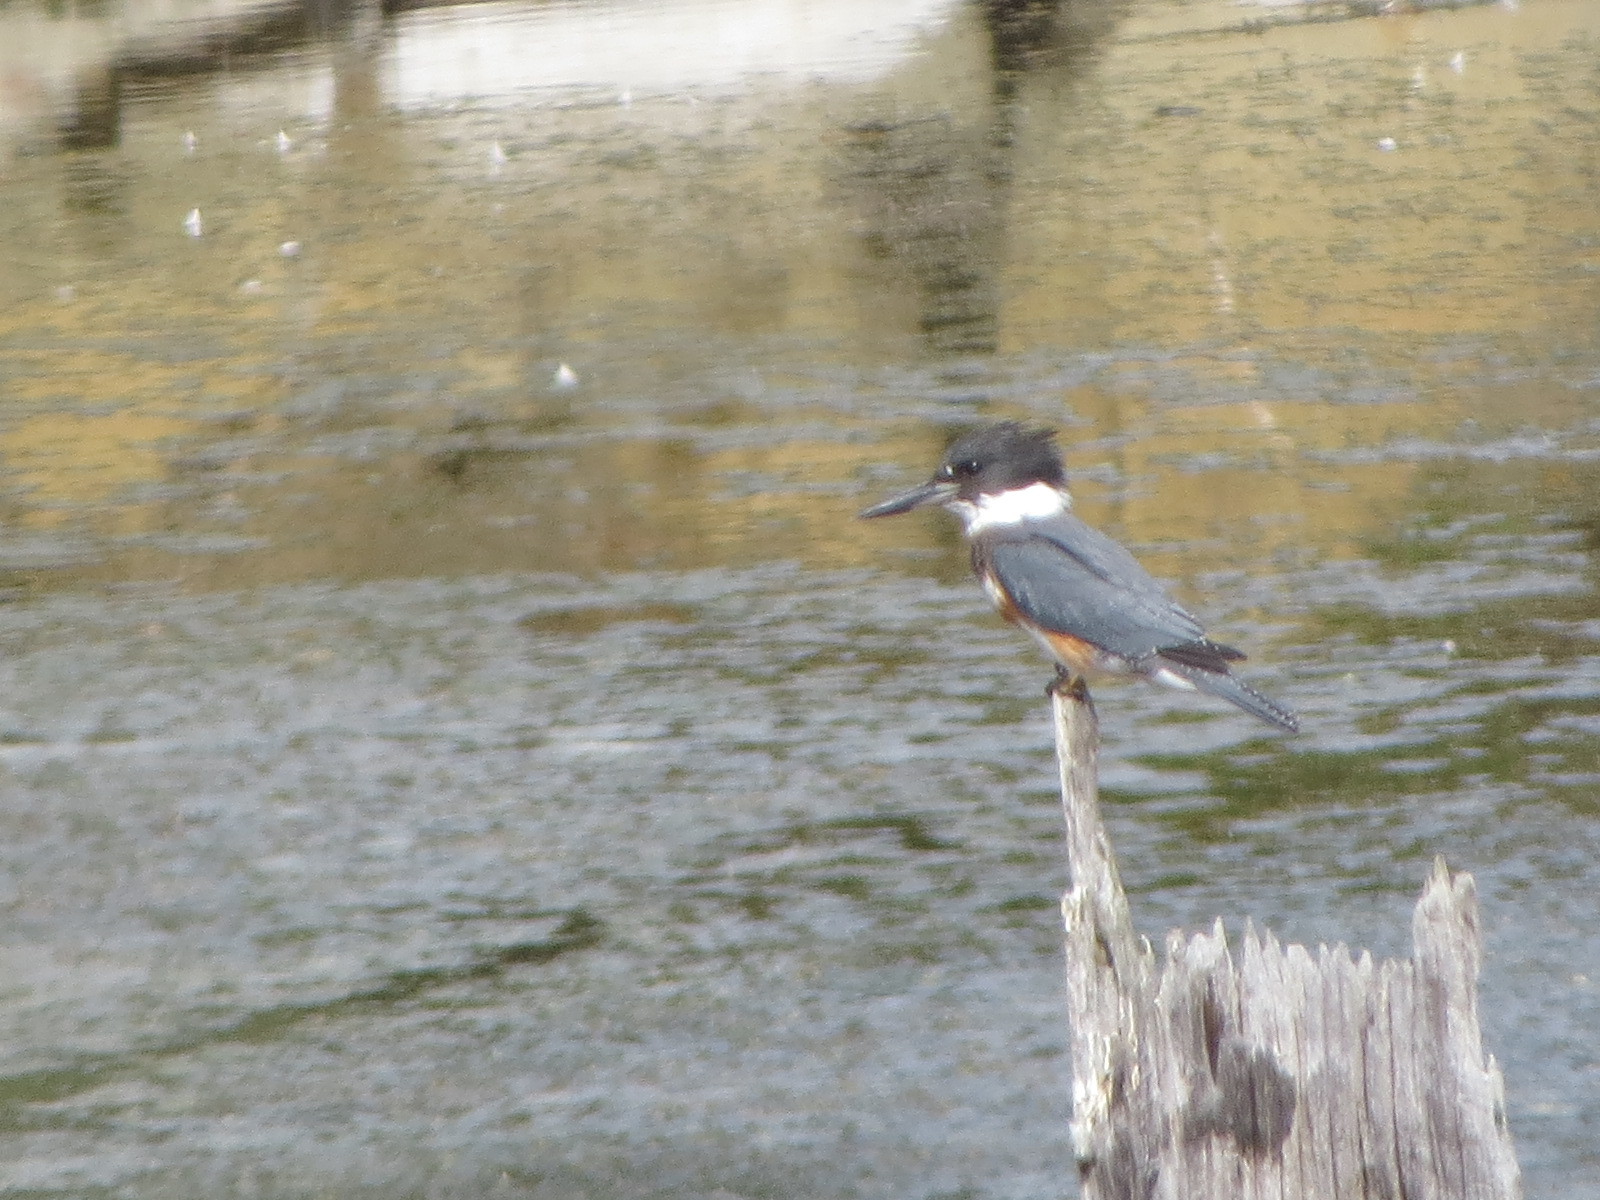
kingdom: Animalia
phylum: Chordata
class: Aves
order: Coraciiformes
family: Alcedinidae
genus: Megaceryle
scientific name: Megaceryle alcyon
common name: Belted kingfisher
